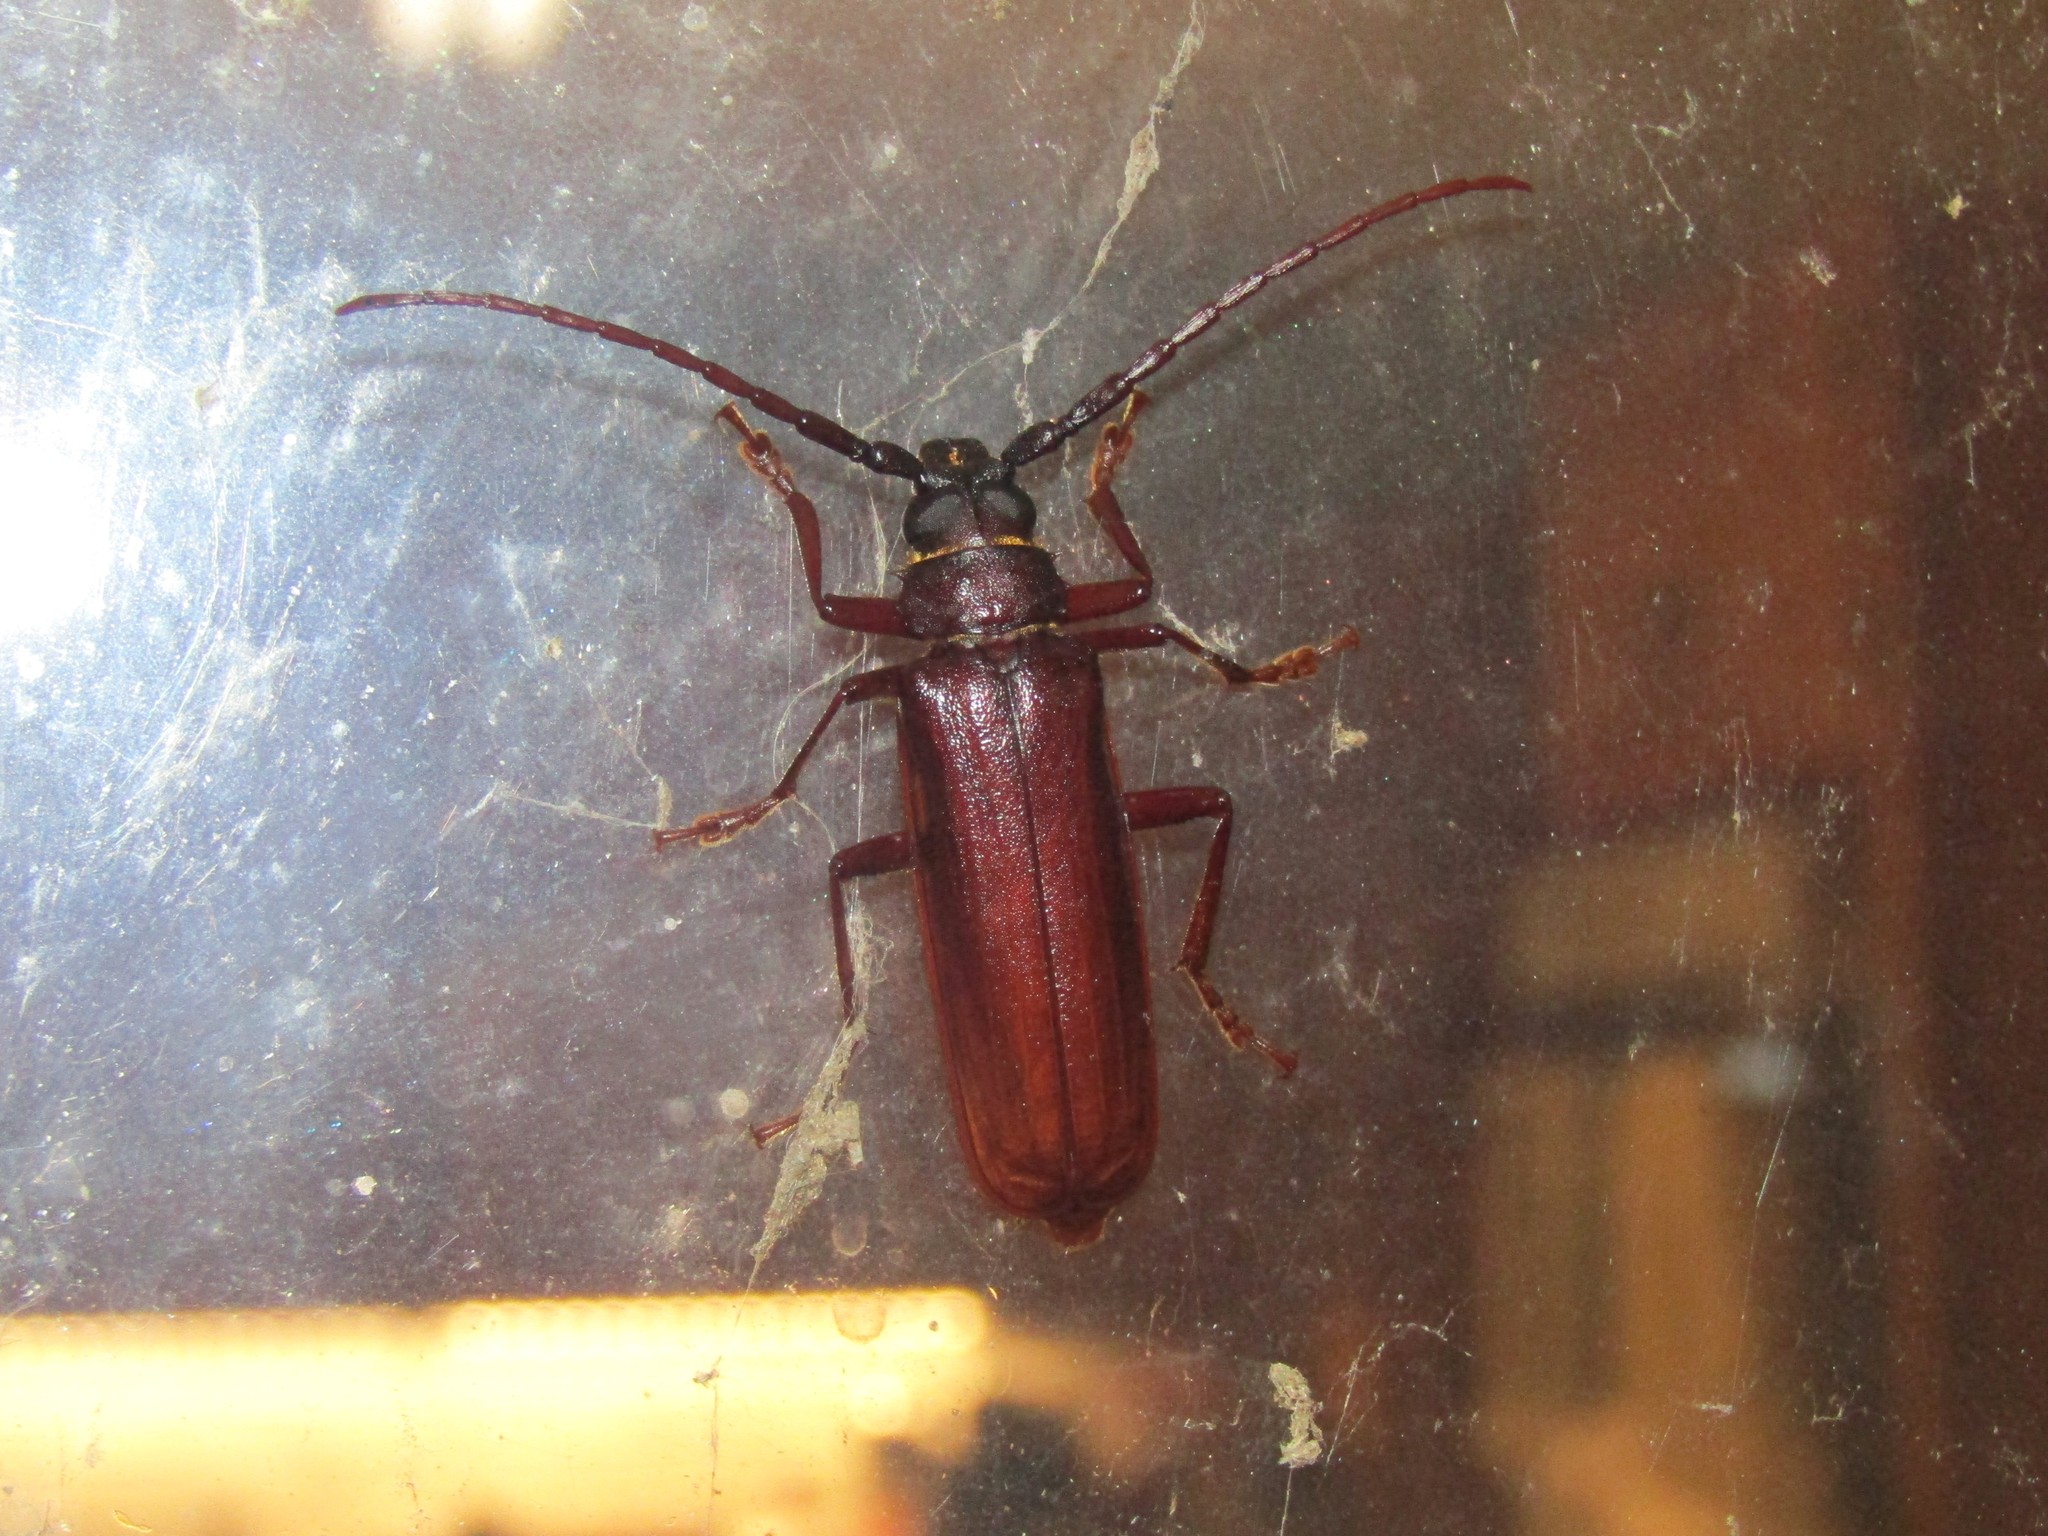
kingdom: Animalia
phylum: Arthropoda
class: Insecta
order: Coleoptera
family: Cerambycidae
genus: Orthosoma
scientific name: Orthosoma brunneum
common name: Brown prionid beetle
